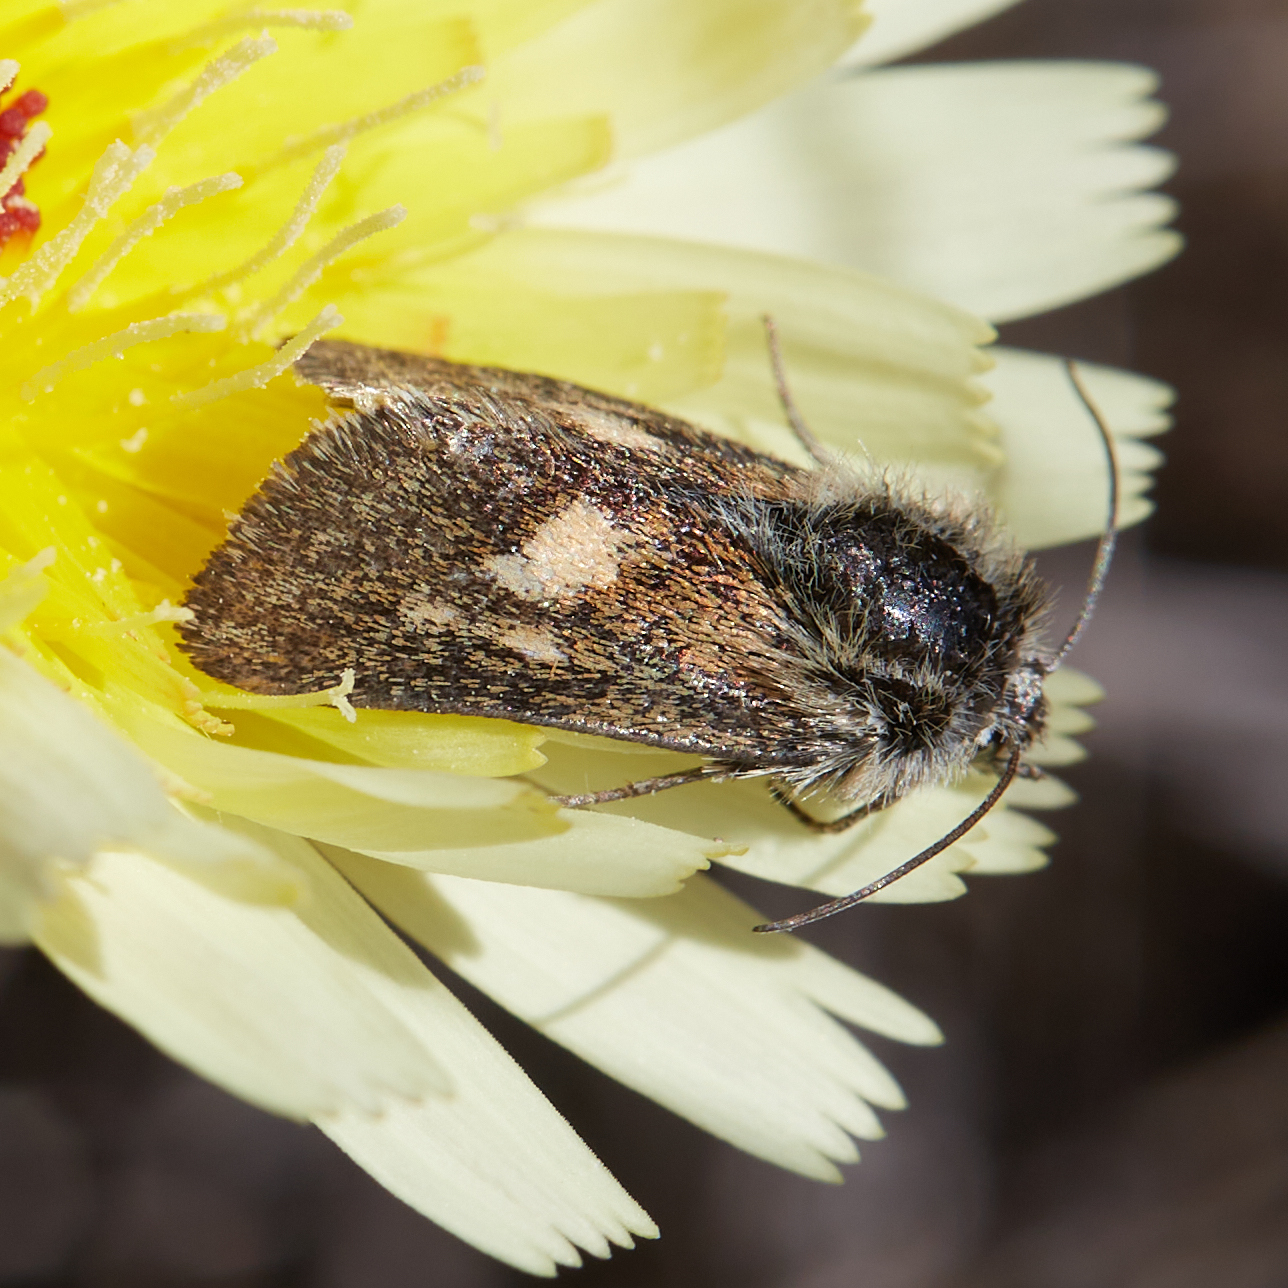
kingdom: Animalia
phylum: Arthropoda
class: Insecta
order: Lepidoptera
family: Noctuidae
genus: Heliolonche
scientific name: Heliolonche joaquinensis
